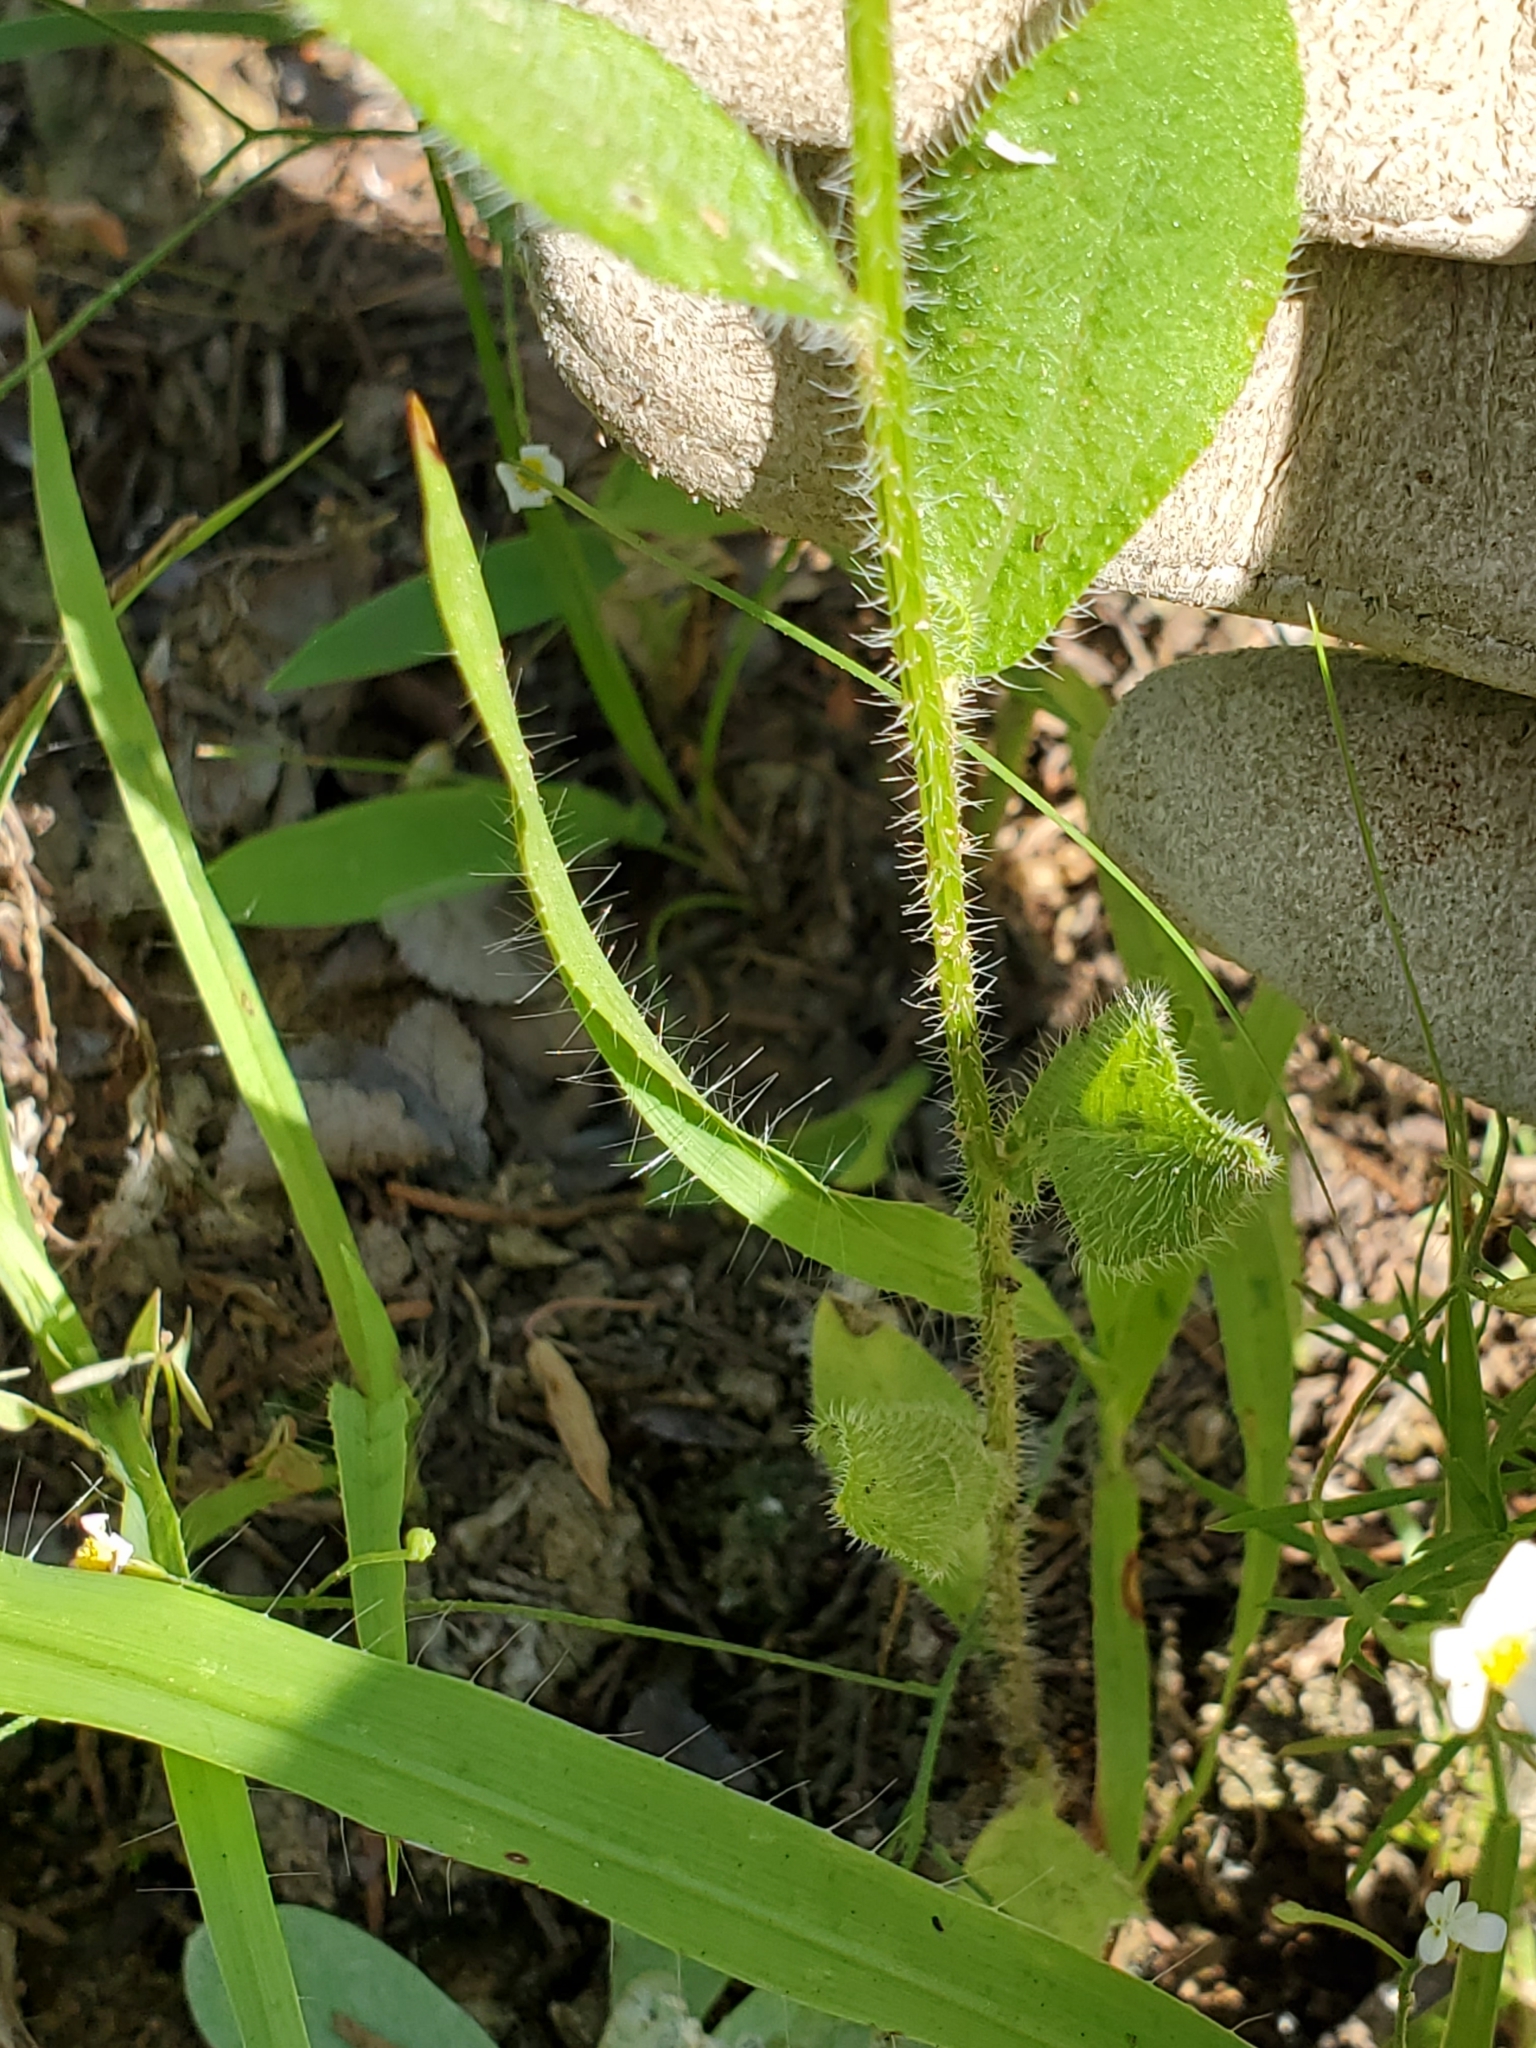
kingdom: Plantae
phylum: Tracheophyta
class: Magnoliopsida
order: Asterales
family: Asteraceae
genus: Rudbeckia
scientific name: Rudbeckia hirta
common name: Black-eyed-susan
